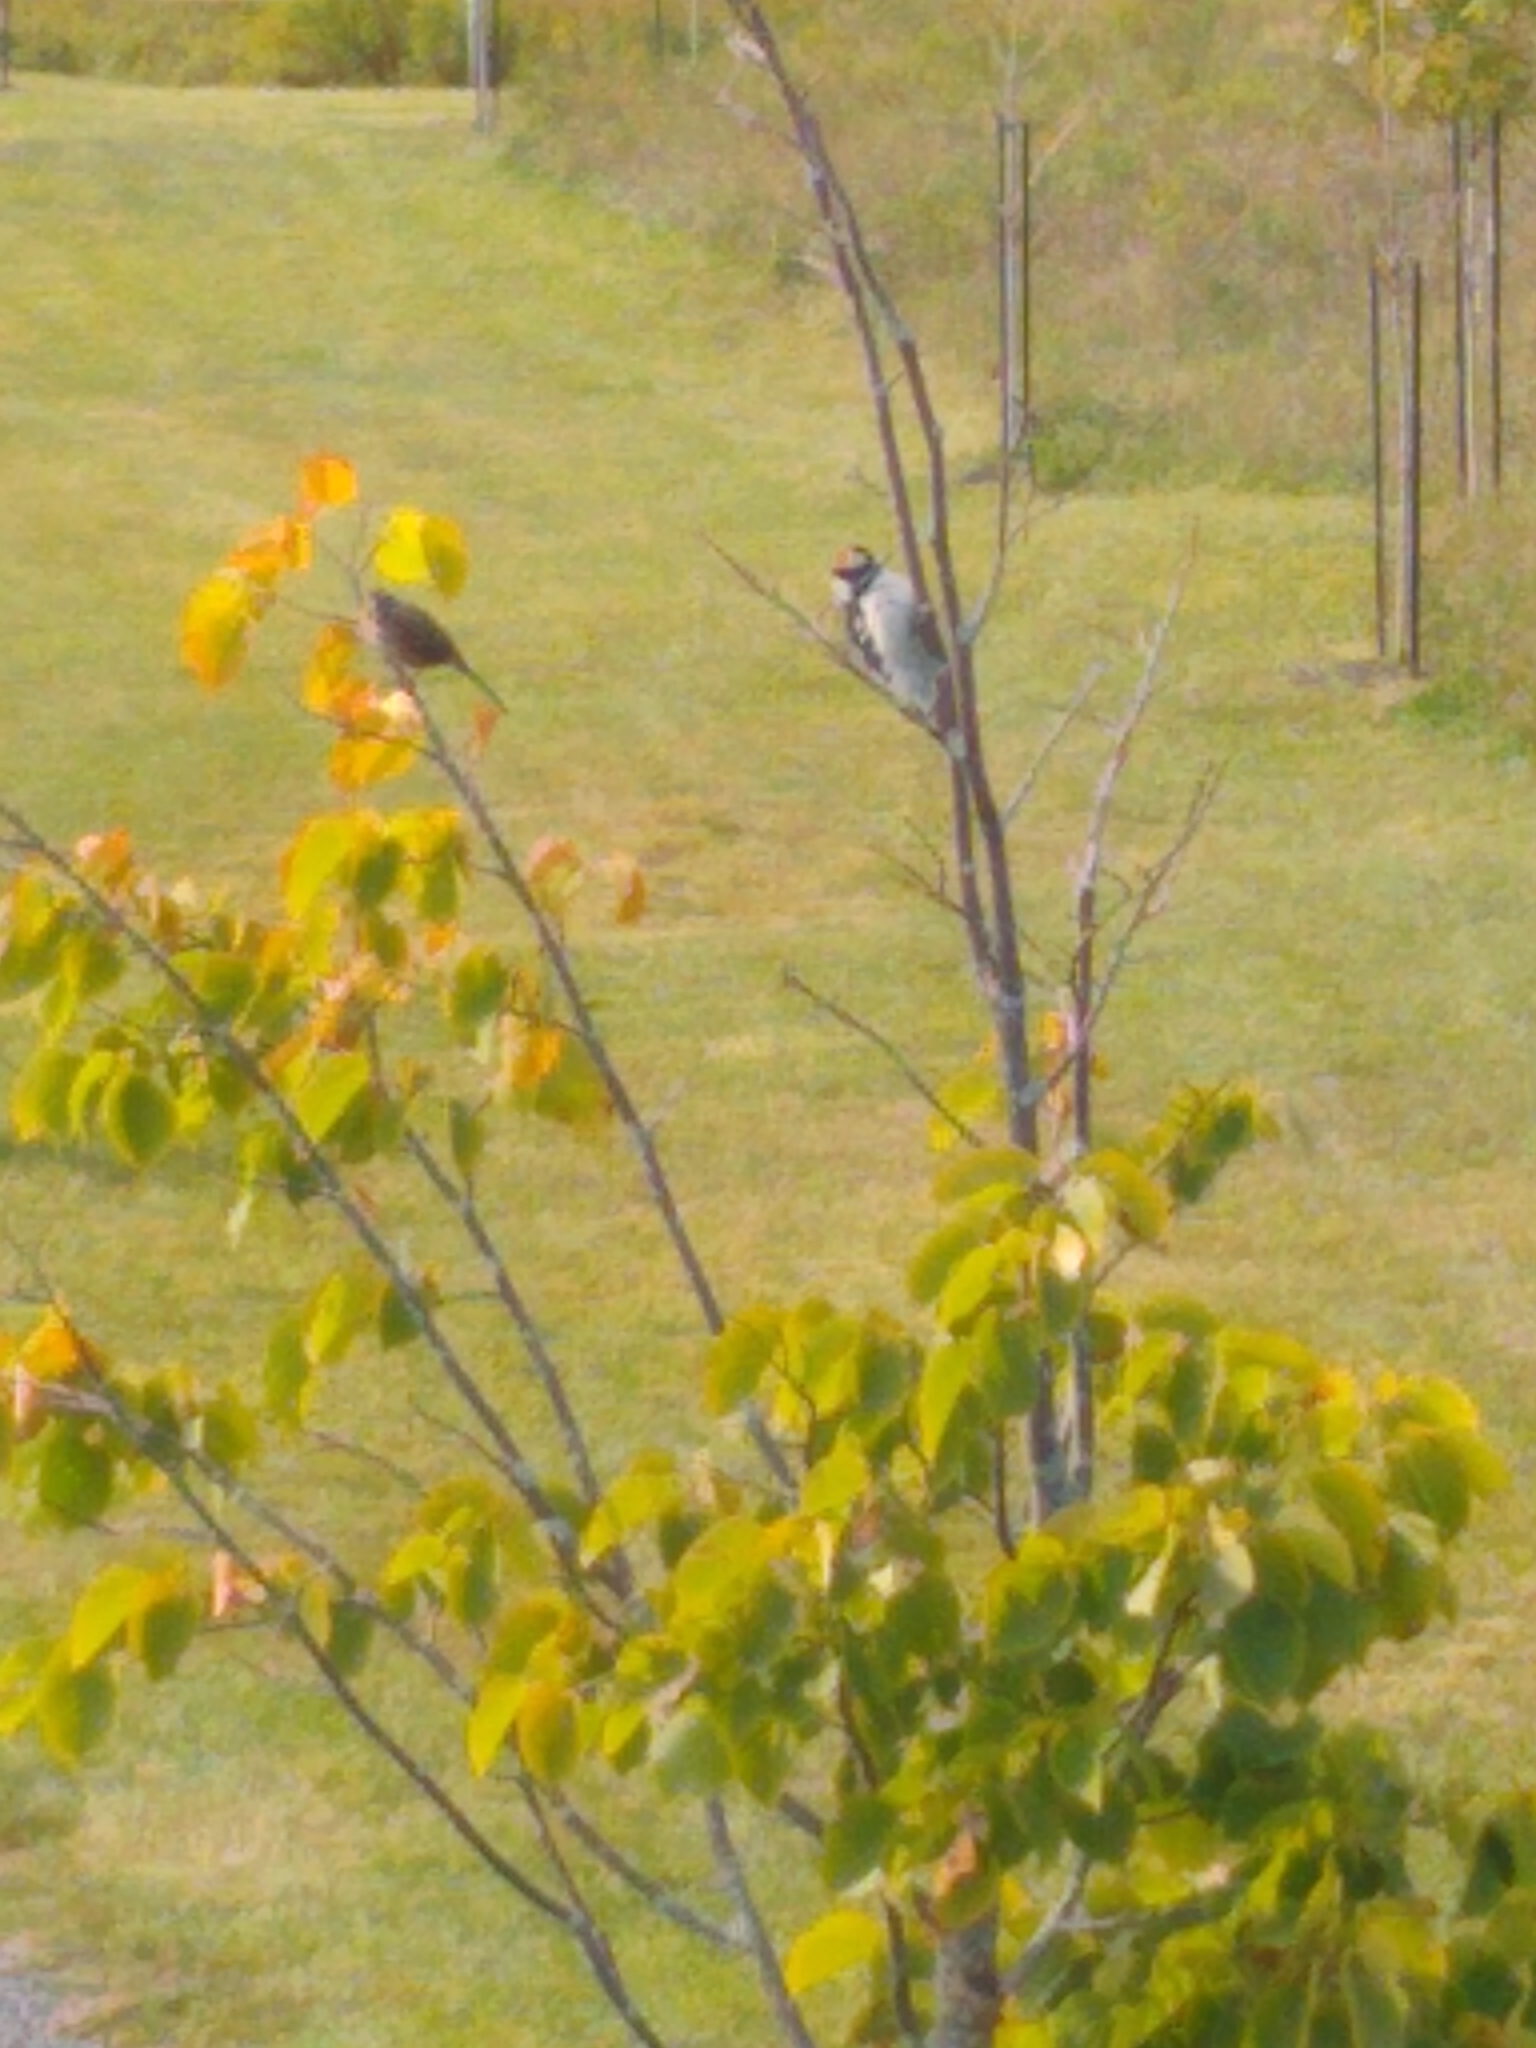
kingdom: Animalia
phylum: Chordata
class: Aves
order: Piciformes
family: Picidae
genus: Dryobates
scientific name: Dryobates pubescens
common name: Downy woodpecker
